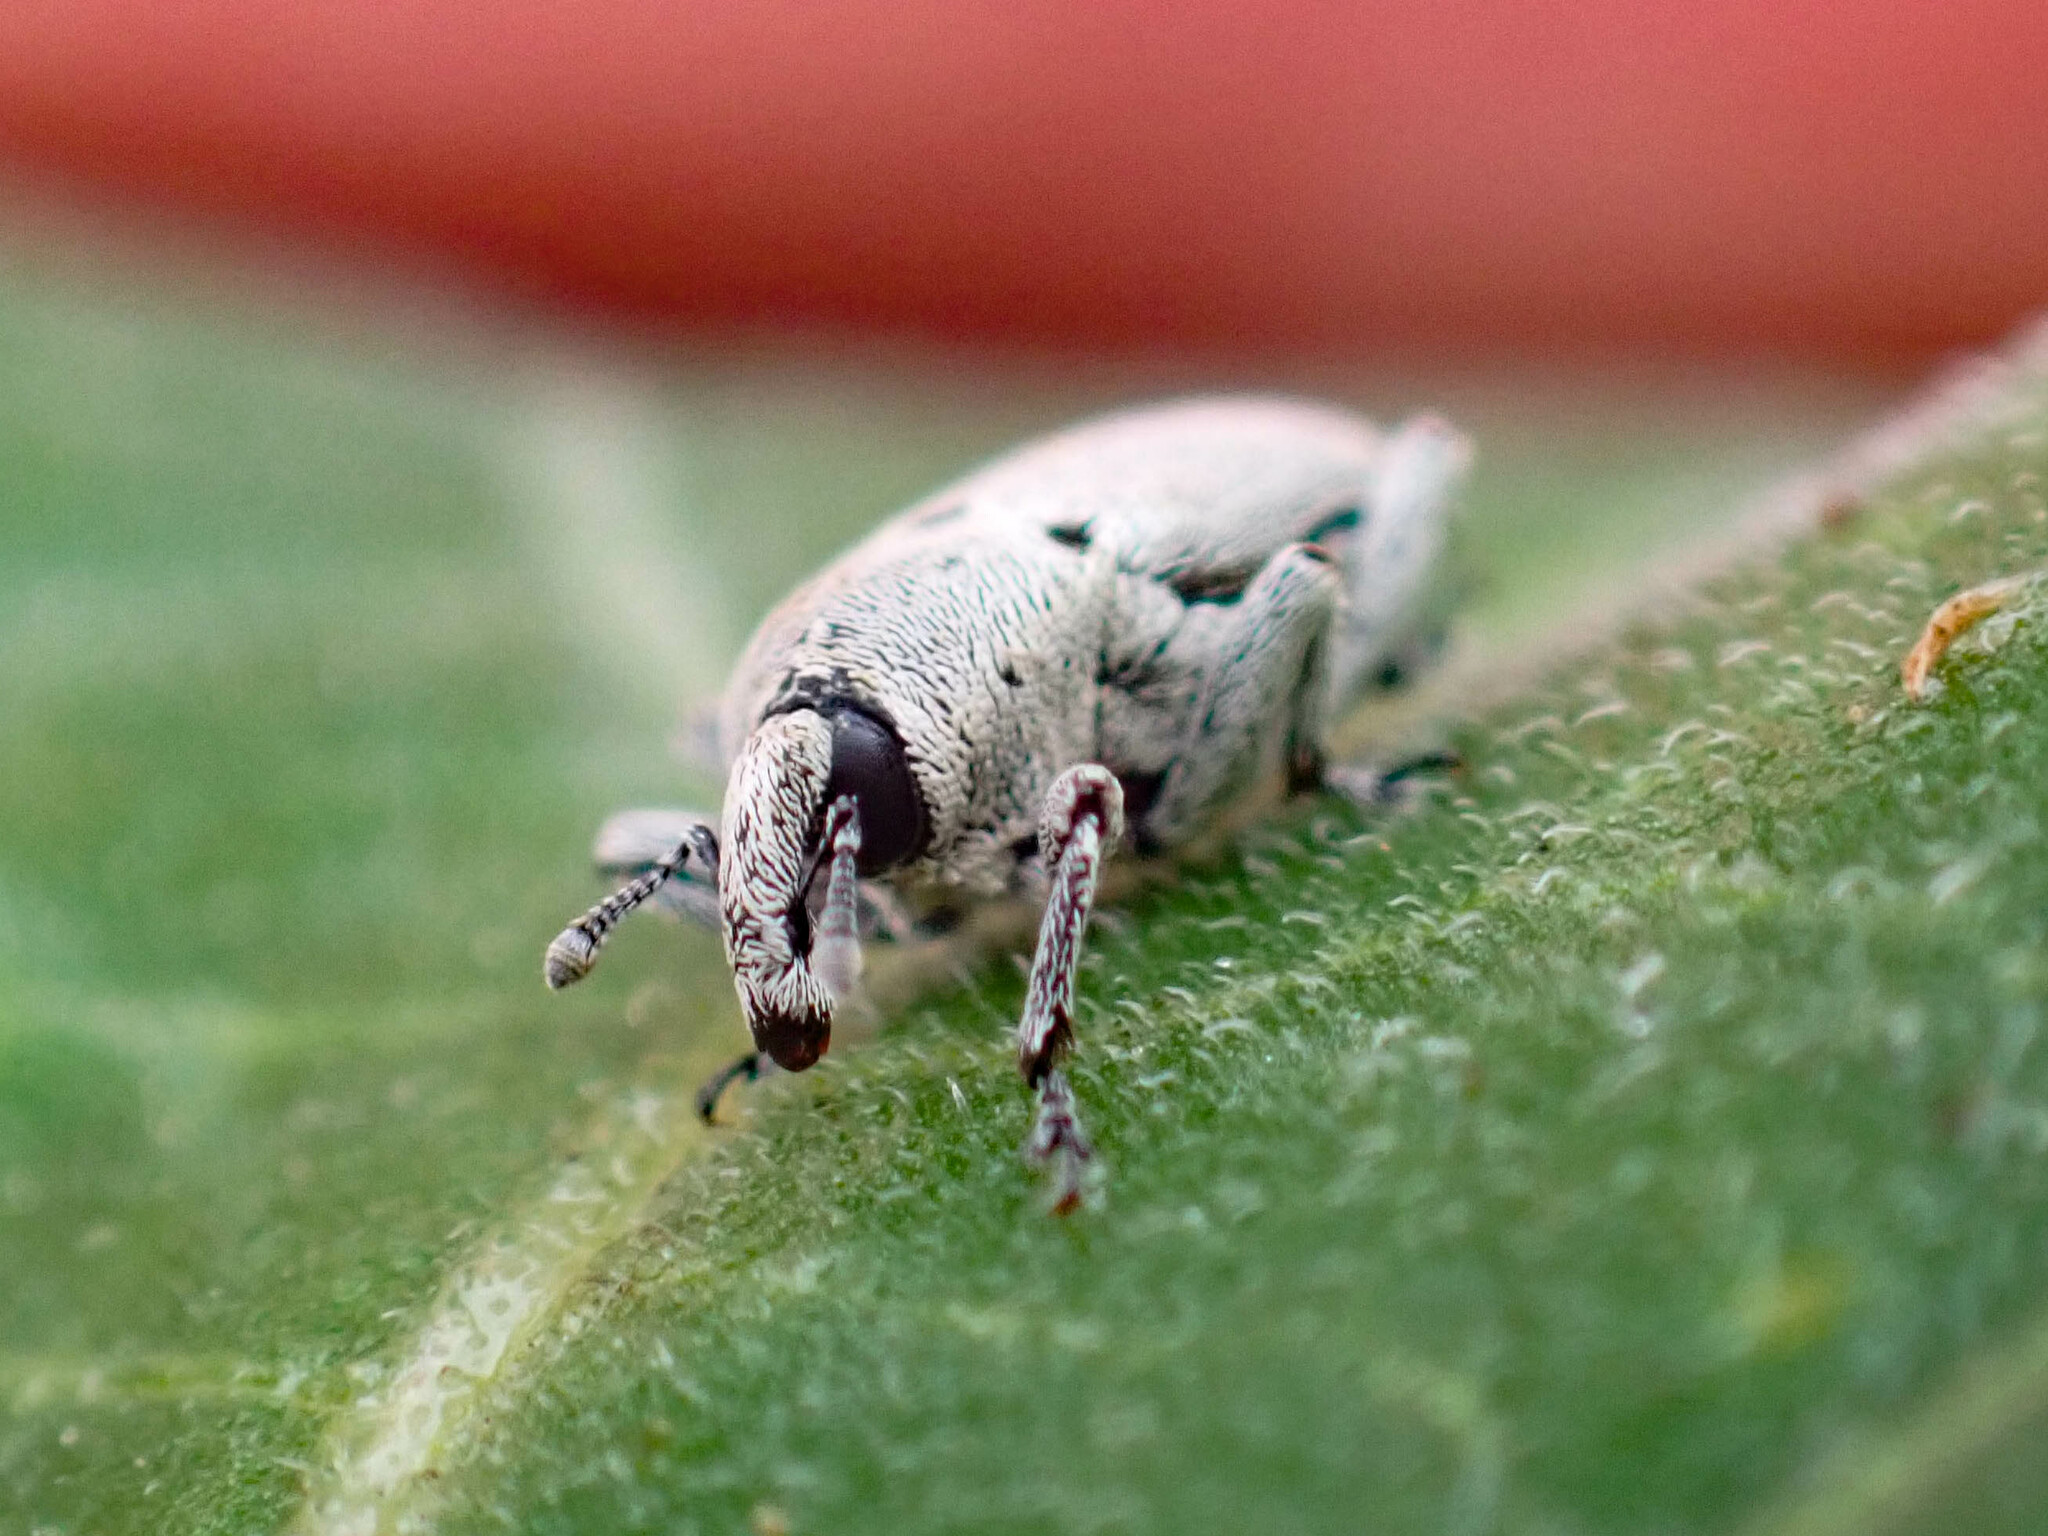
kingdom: Animalia
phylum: Arthropoda
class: Insecta
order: Coleoptera
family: Curculionidae
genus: Trichobaris
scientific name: Trichobaris compacta
